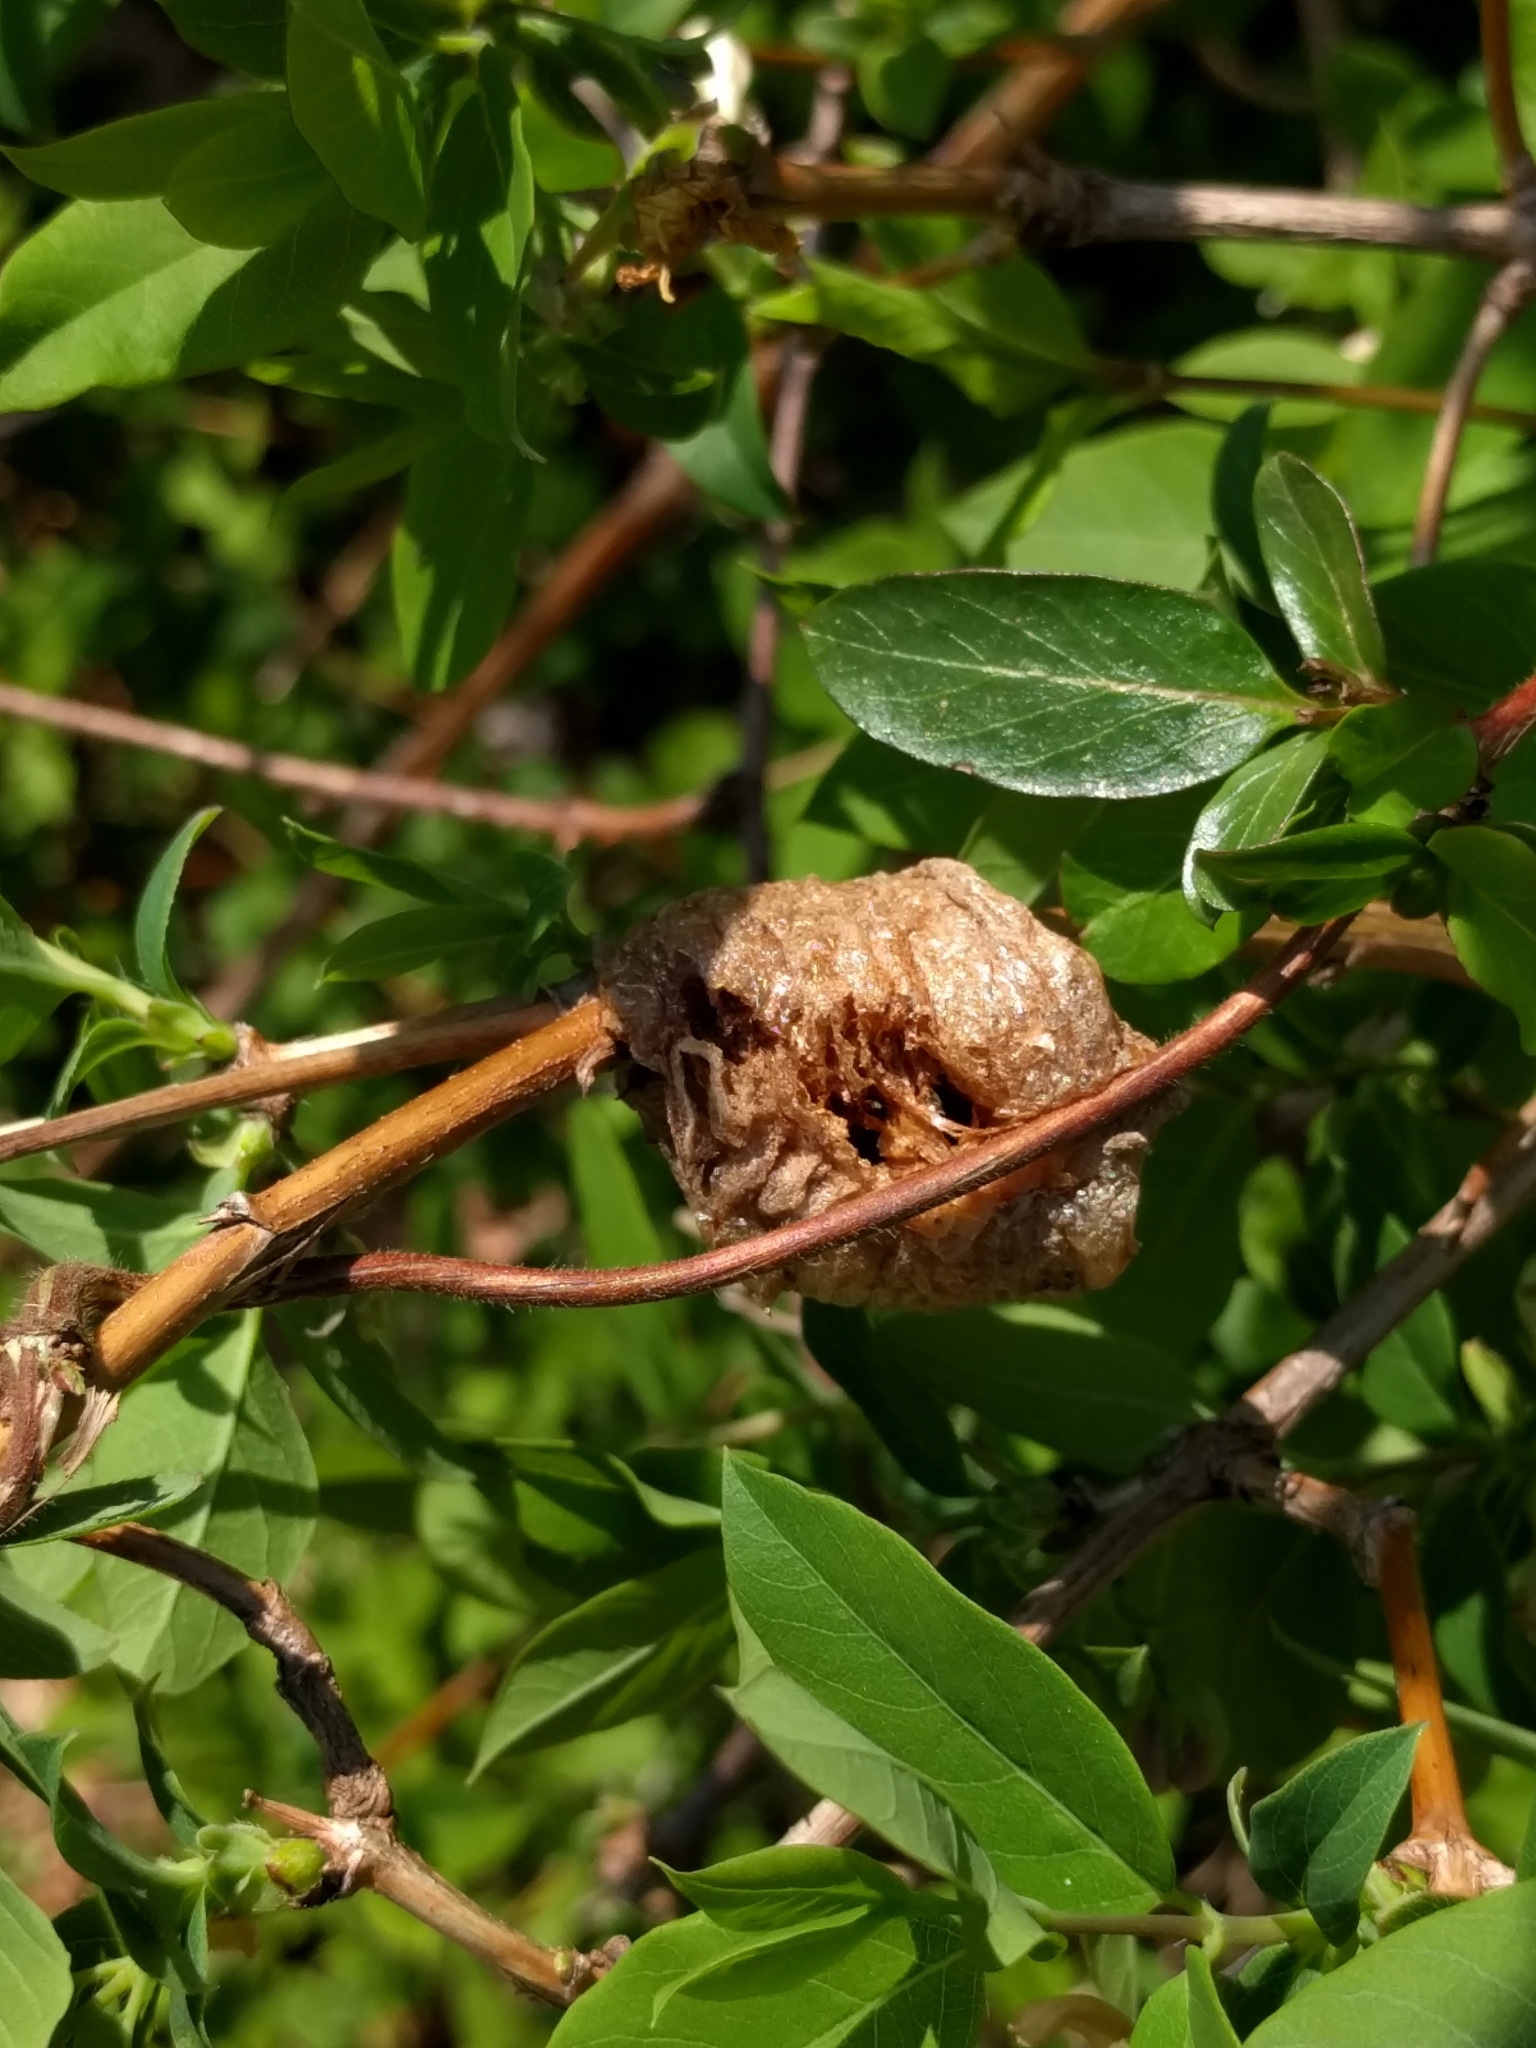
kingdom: Animalia
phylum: Arthropoda
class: Insecta
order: Mantodea
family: Mantidae
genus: Tenodera
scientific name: Tenodera sinensis
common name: Chinese mantis
